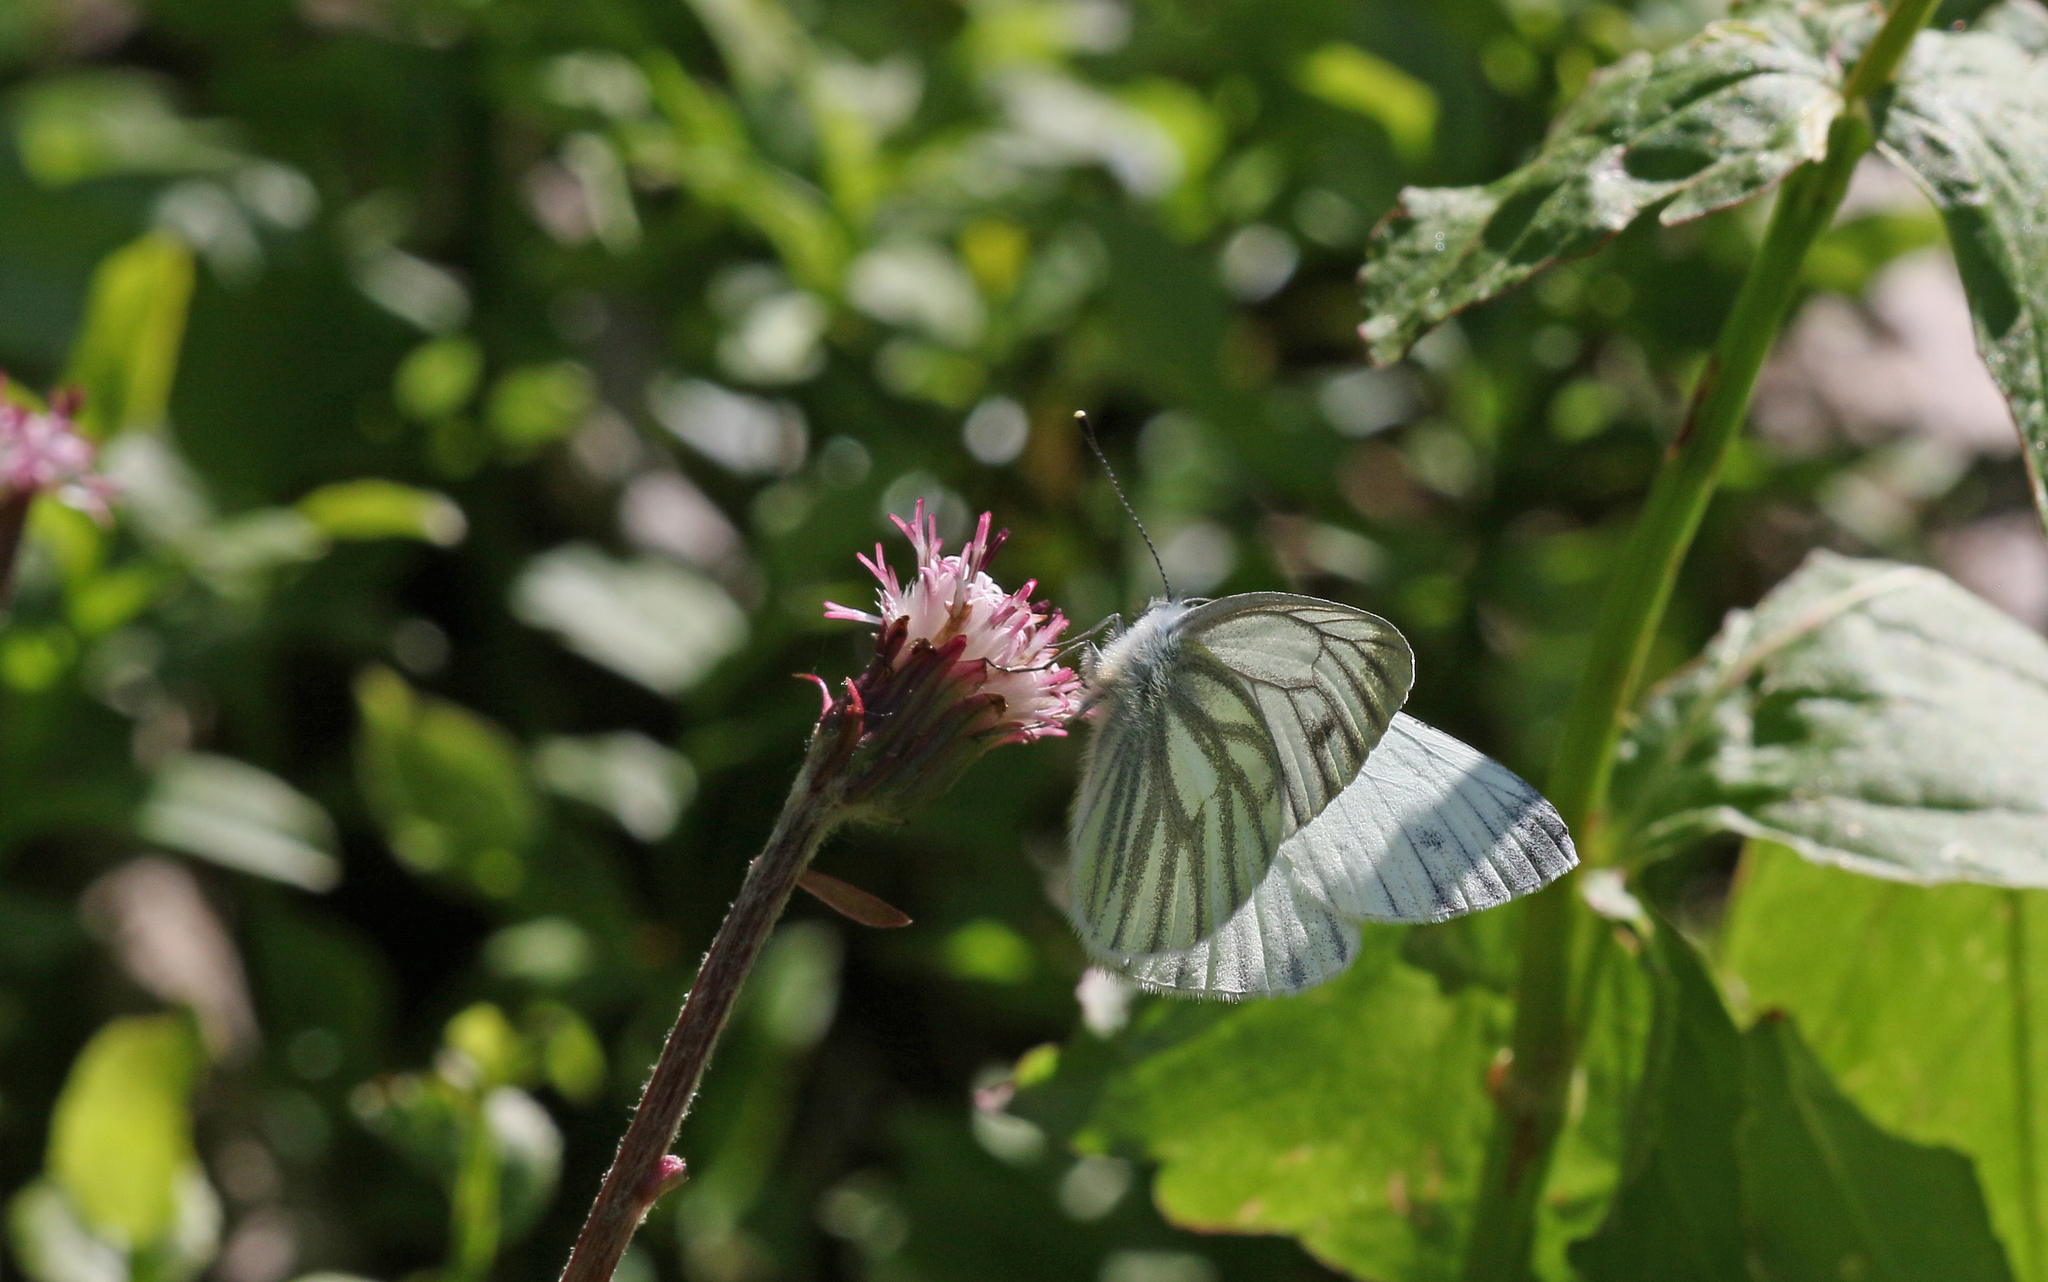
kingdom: Animalia
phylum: Arthropoda
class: Insecta
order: Lepidoptera
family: Pieridae
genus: Pieris
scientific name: Pieris bryoniae
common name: Mountain green-veined white
